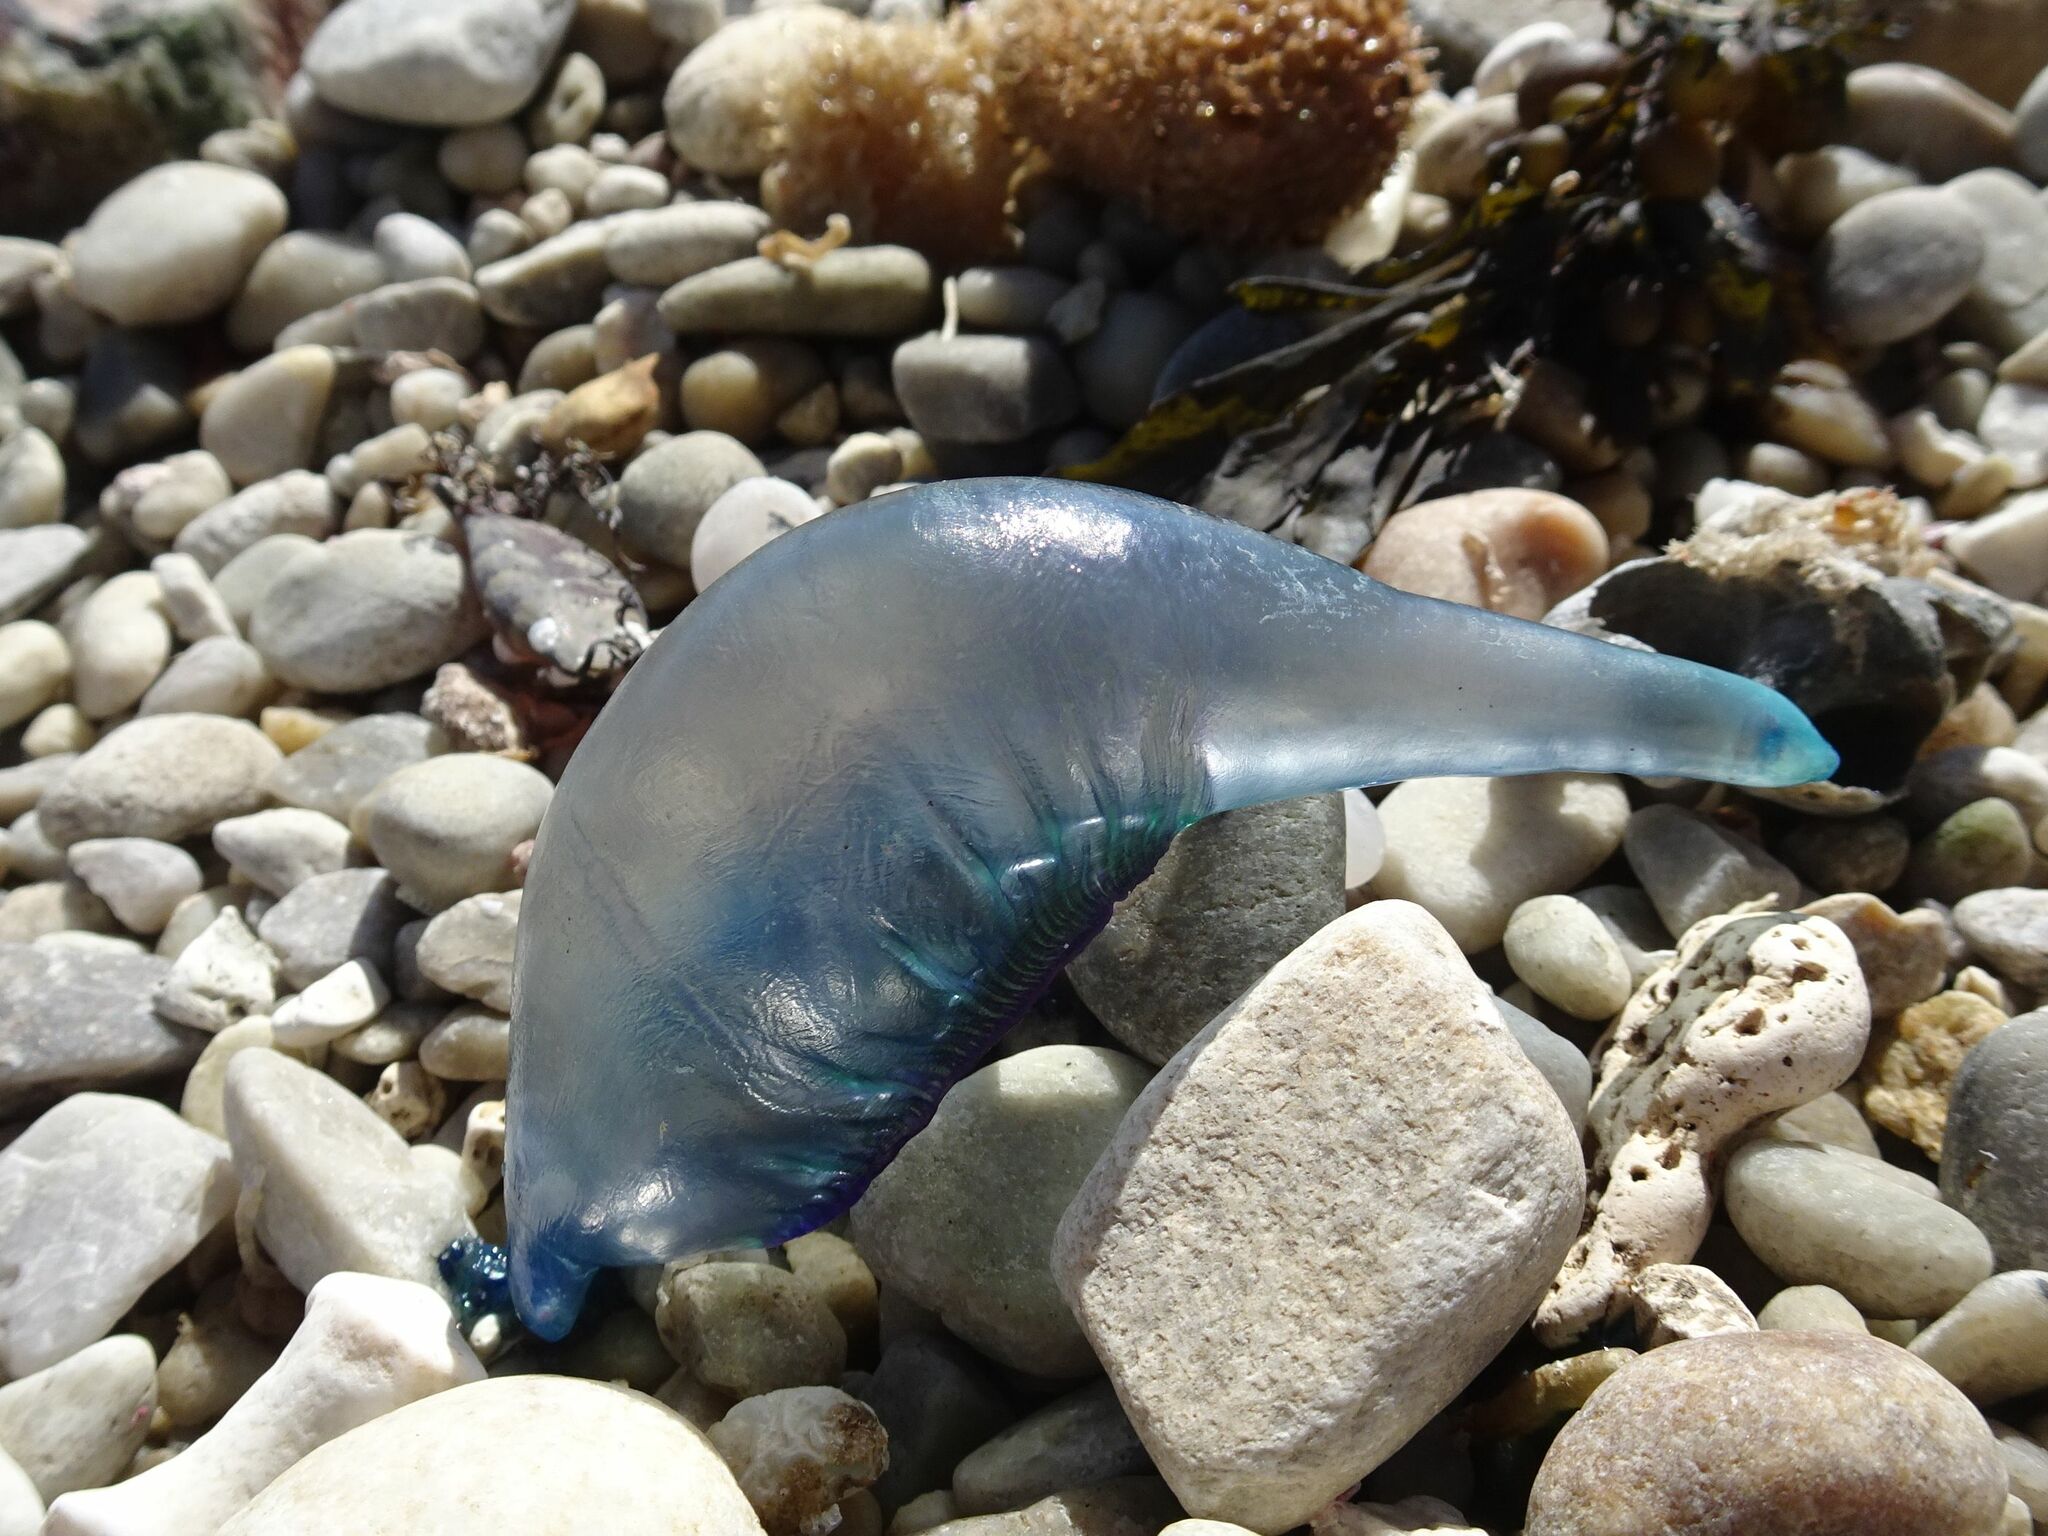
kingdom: Animalia
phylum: Cnidaria
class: Hydrozoa
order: Siphonophorae
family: Physaliidae
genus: Physalia
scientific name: Physalia physalis
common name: Portuguese man-of-war
